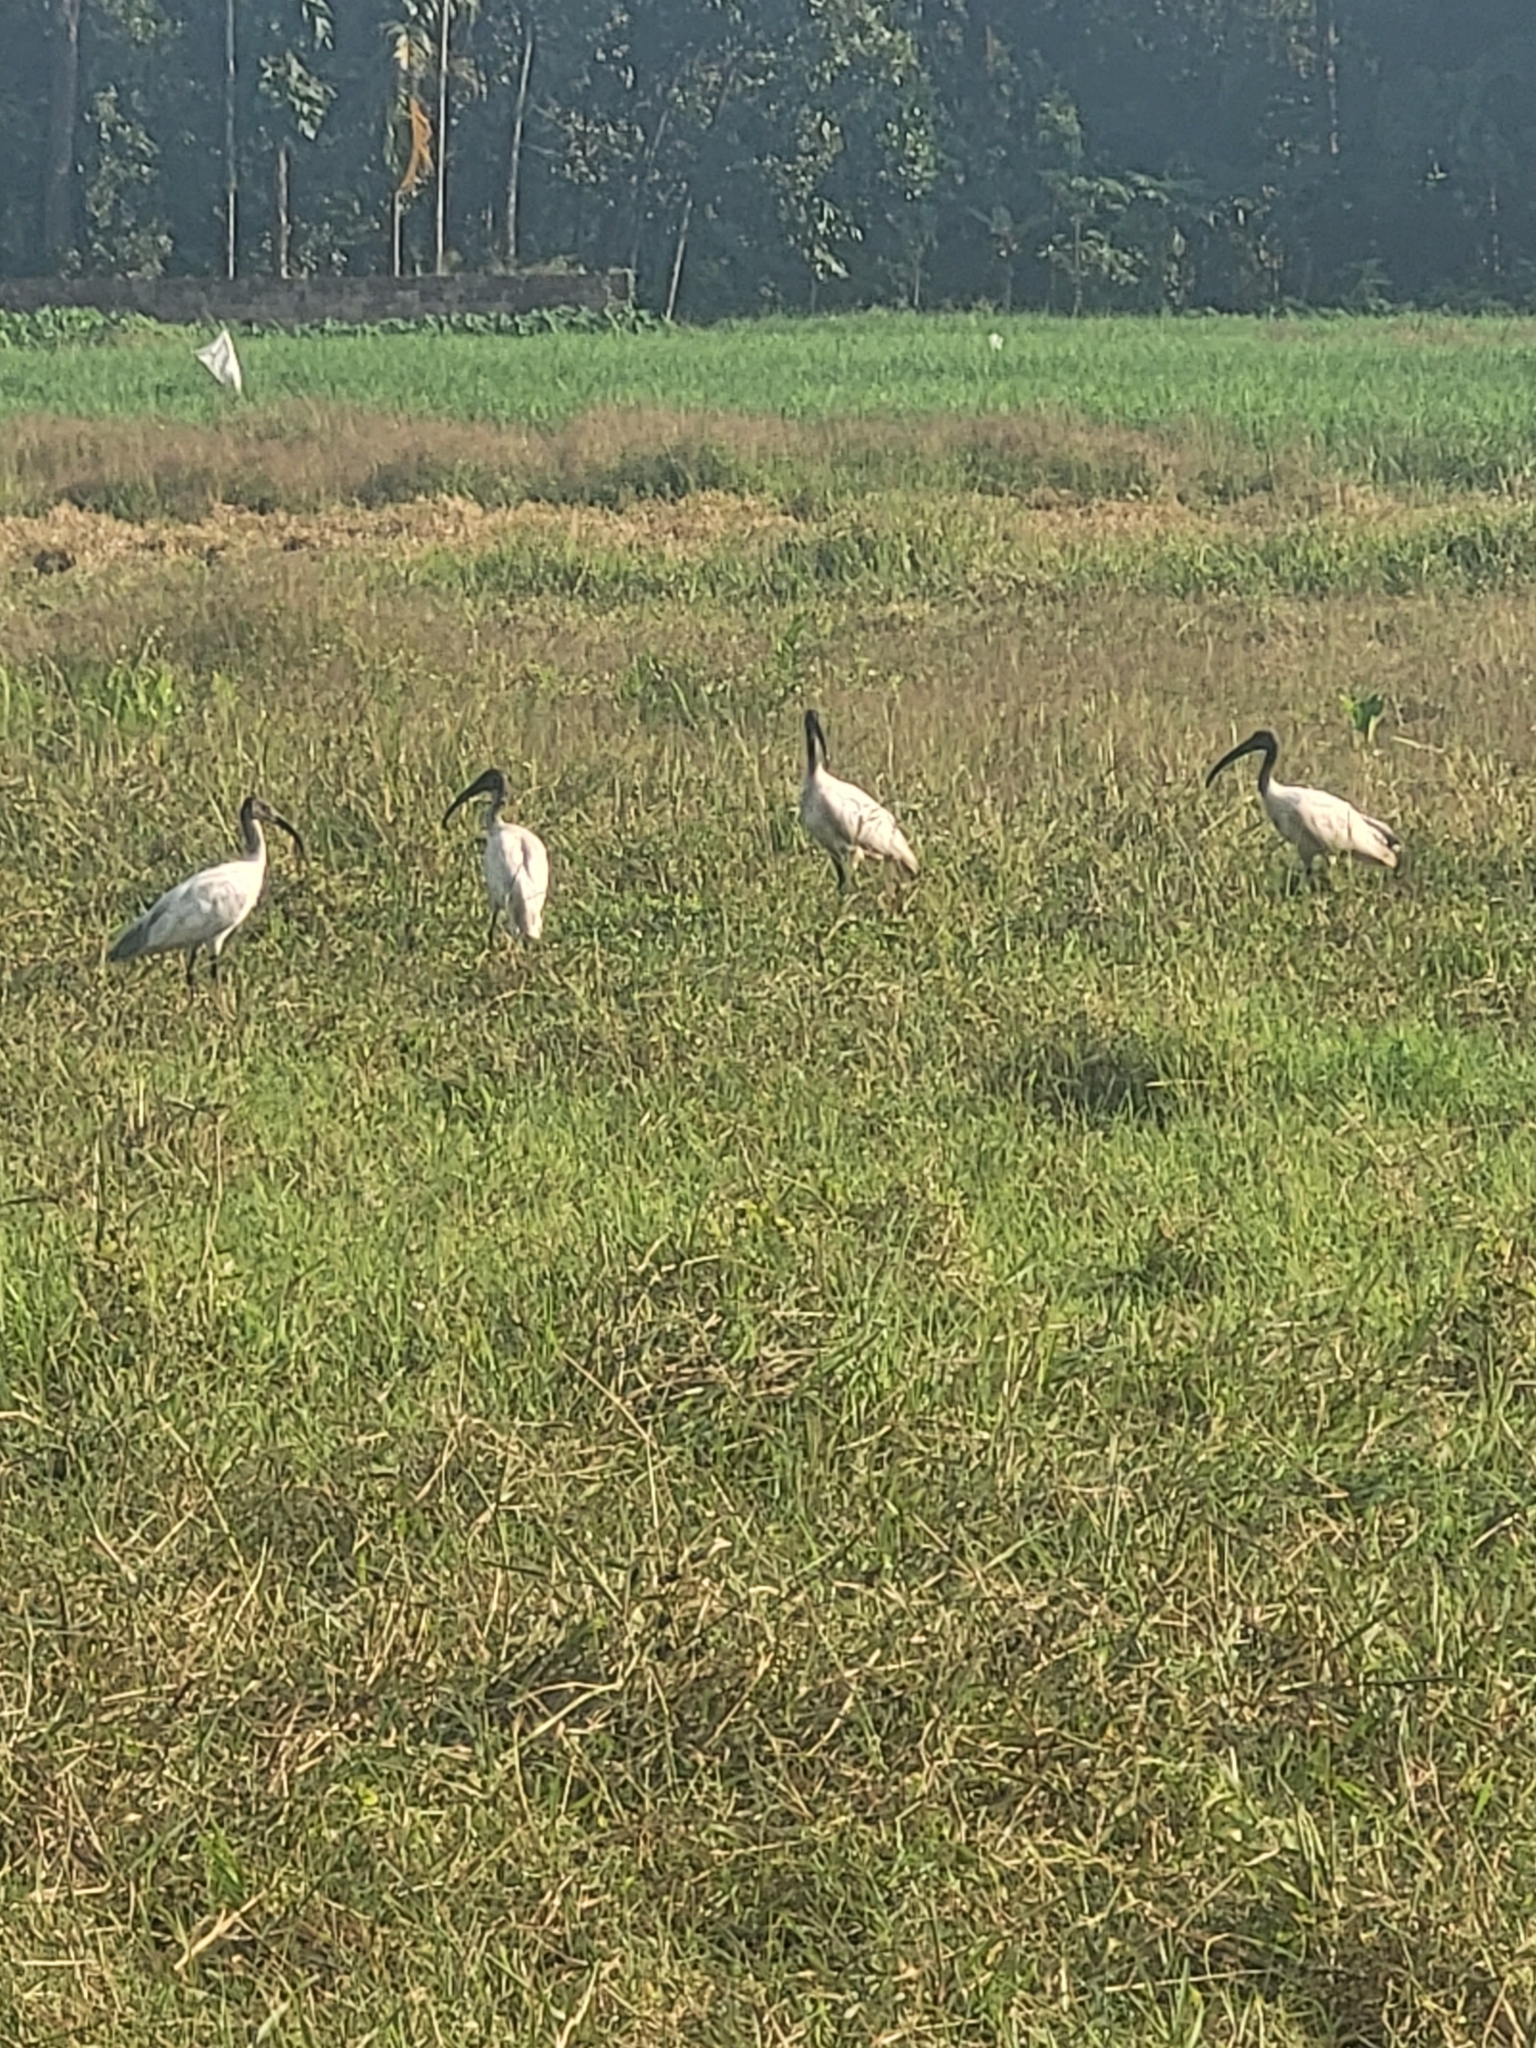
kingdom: Animalia
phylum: Chordata
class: Aves
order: Pelecaniformes
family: Threskiornithidae
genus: Threskiornis
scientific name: Threskiornis melanocephalus
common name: Black-headed ibis
